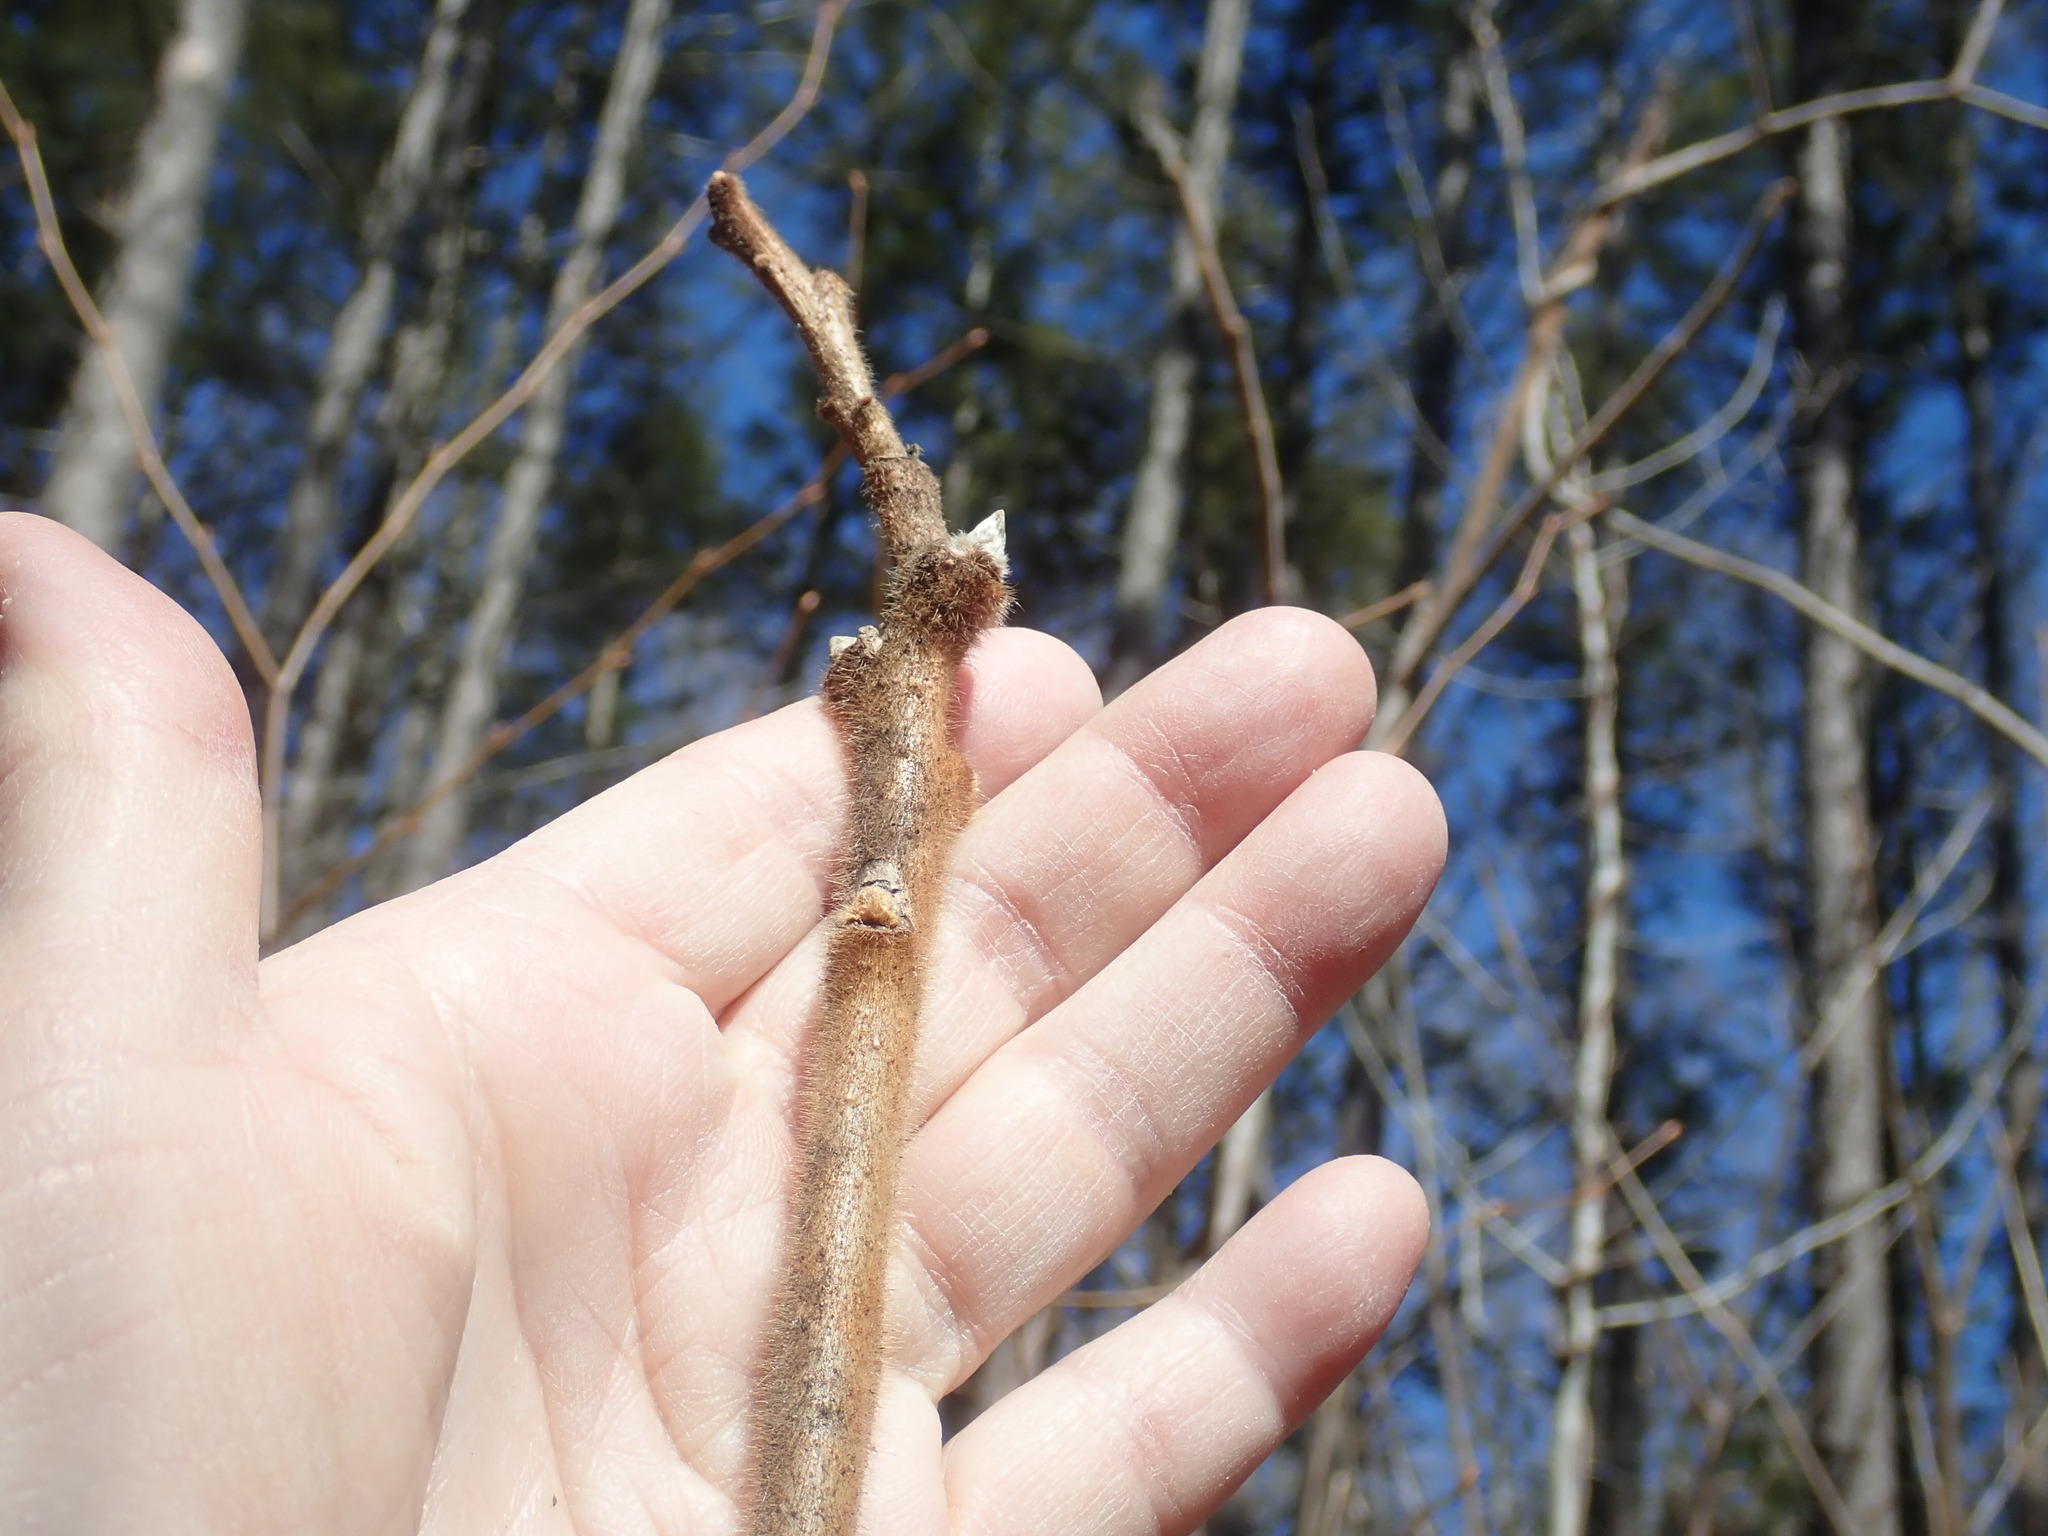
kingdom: Plantae
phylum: Tracheophyta
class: Magnoliopsida
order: Sapindales
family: Anacardiaceae
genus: Rhus
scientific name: Rhus typhina
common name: Staghorn sumac
